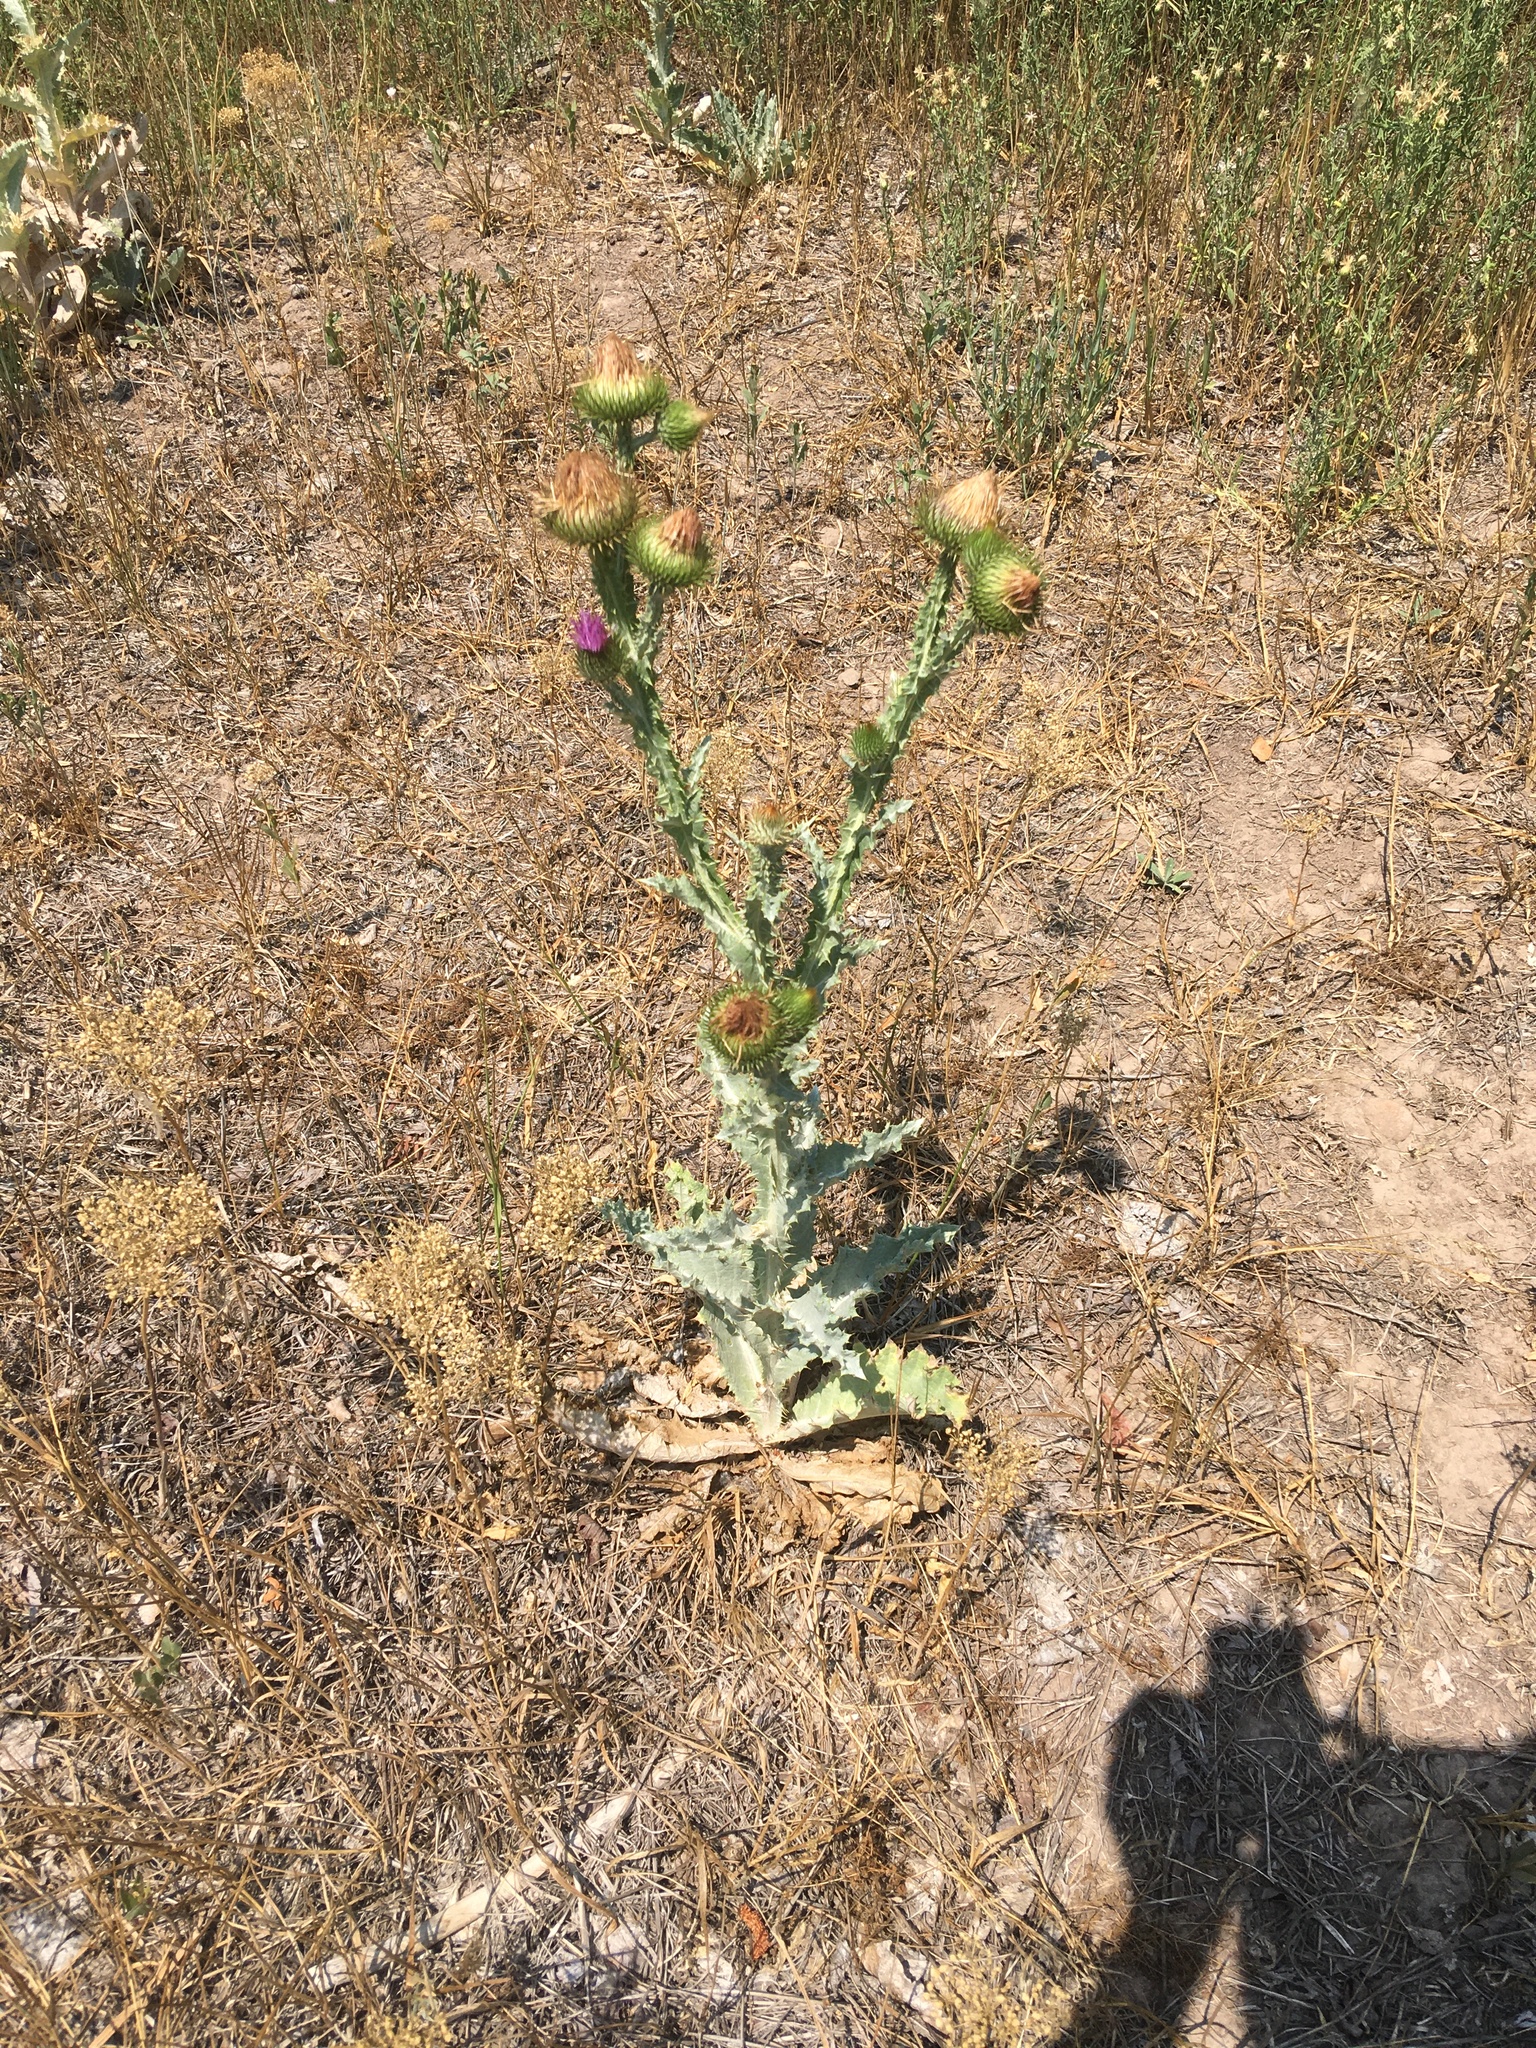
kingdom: Plantae
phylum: Tracheophyta
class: Magnoliopsida
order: Asterales
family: Asteraceae
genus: Onopordum
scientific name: Onopordum acanthium
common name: Scotch thistle
